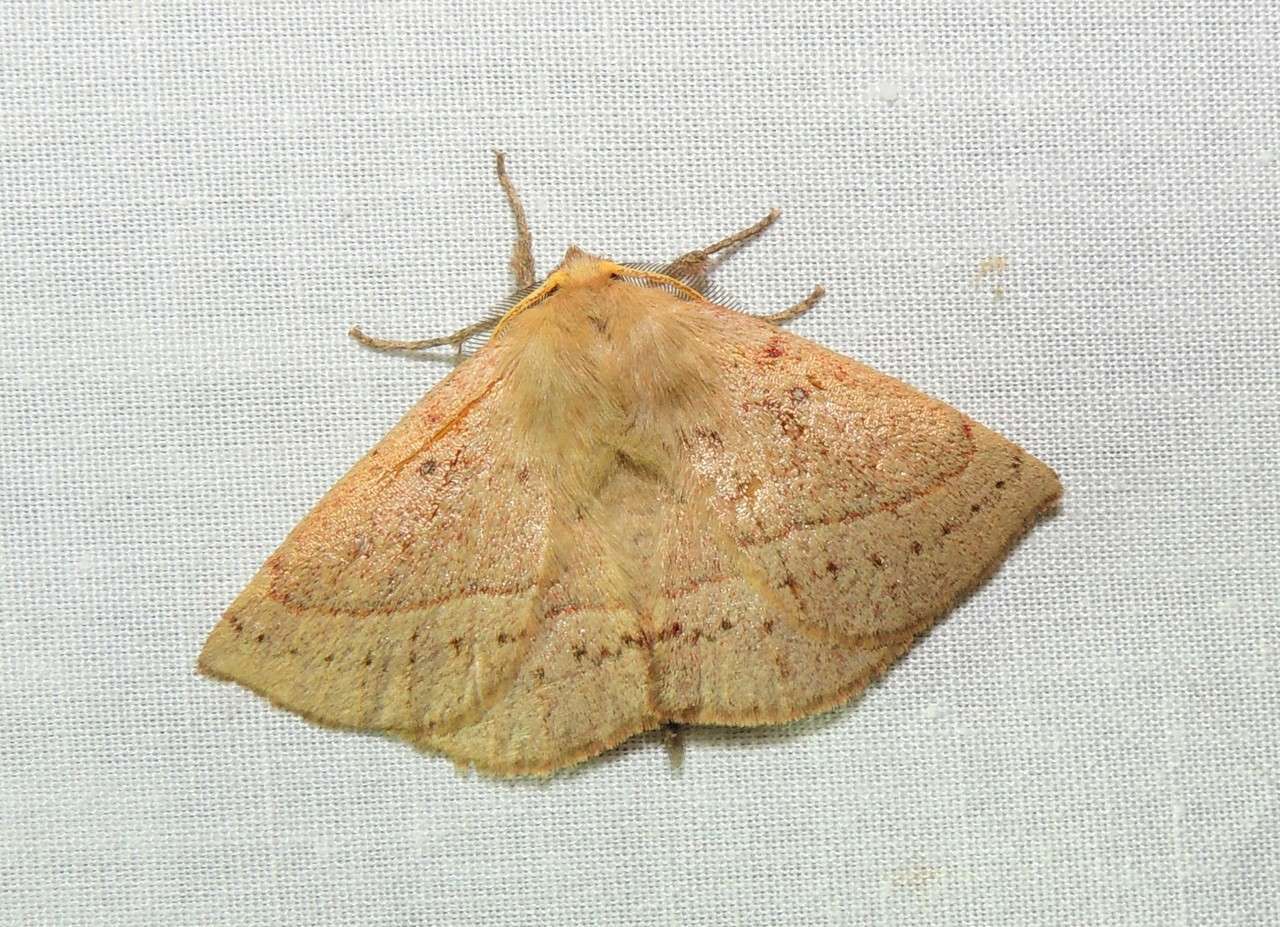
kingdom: Animalia
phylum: Arthropoda
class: Insecta
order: Lepidoptera
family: Anthelidae
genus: Anthela
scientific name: Anthela acuta
